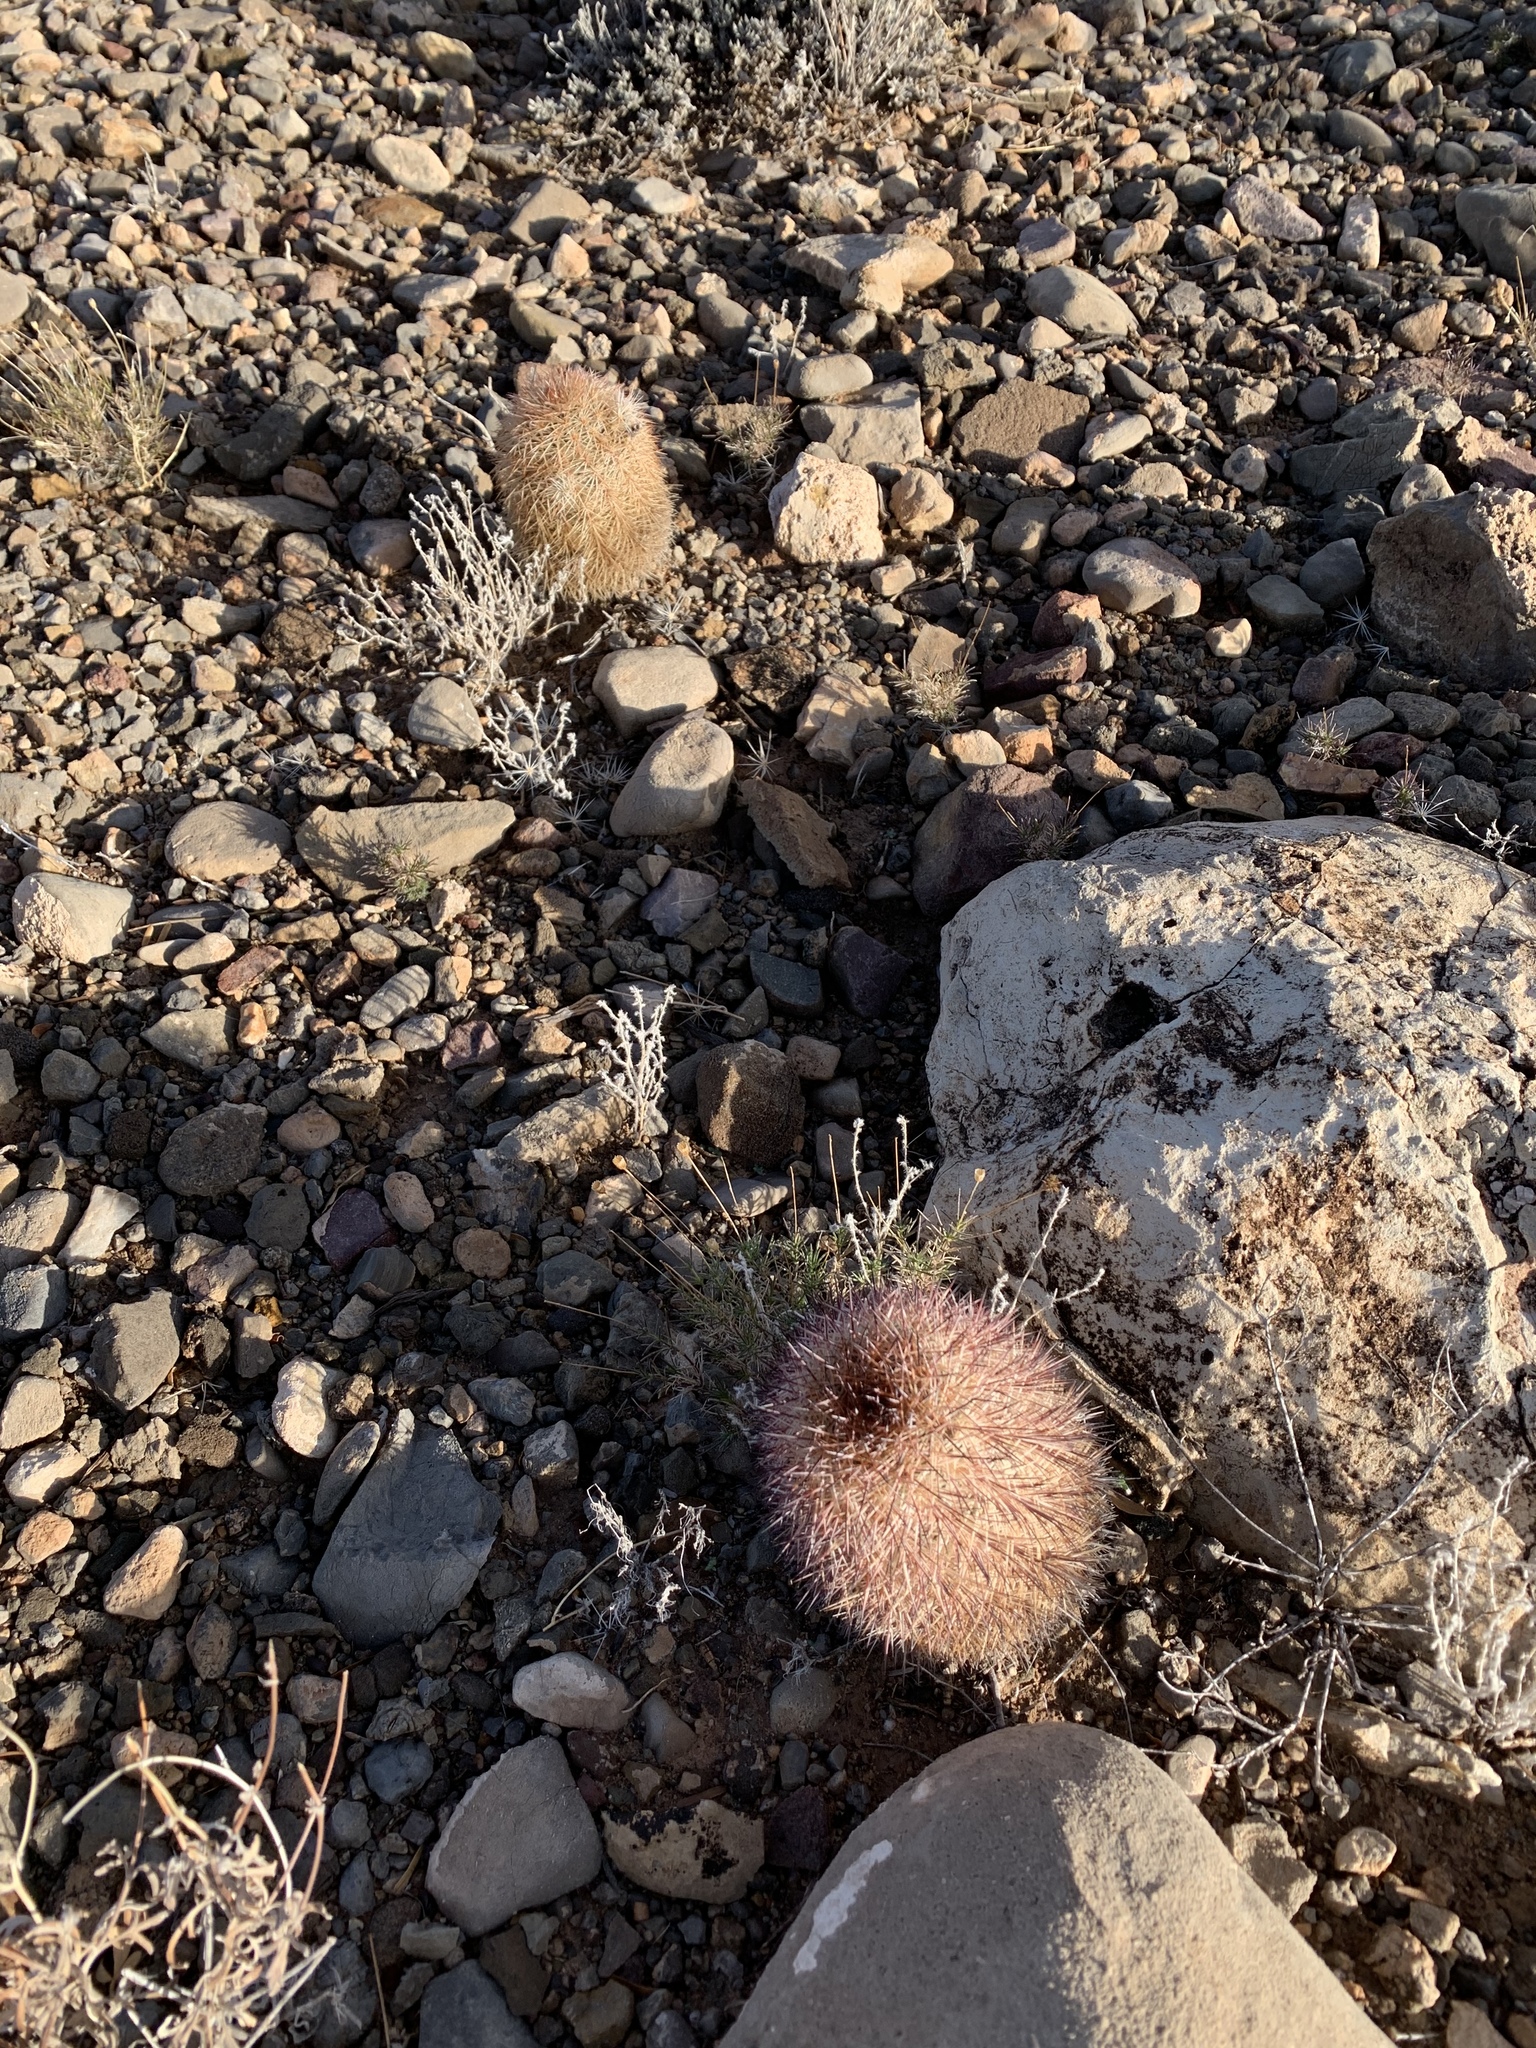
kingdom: Plantae
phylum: Tracheophyta
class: Magnoliopsida
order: Caryophyllales
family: Cactaceae
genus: Echinocereus
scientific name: Echinocereus dasyacanthus
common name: Spiny hedgehog cactus
